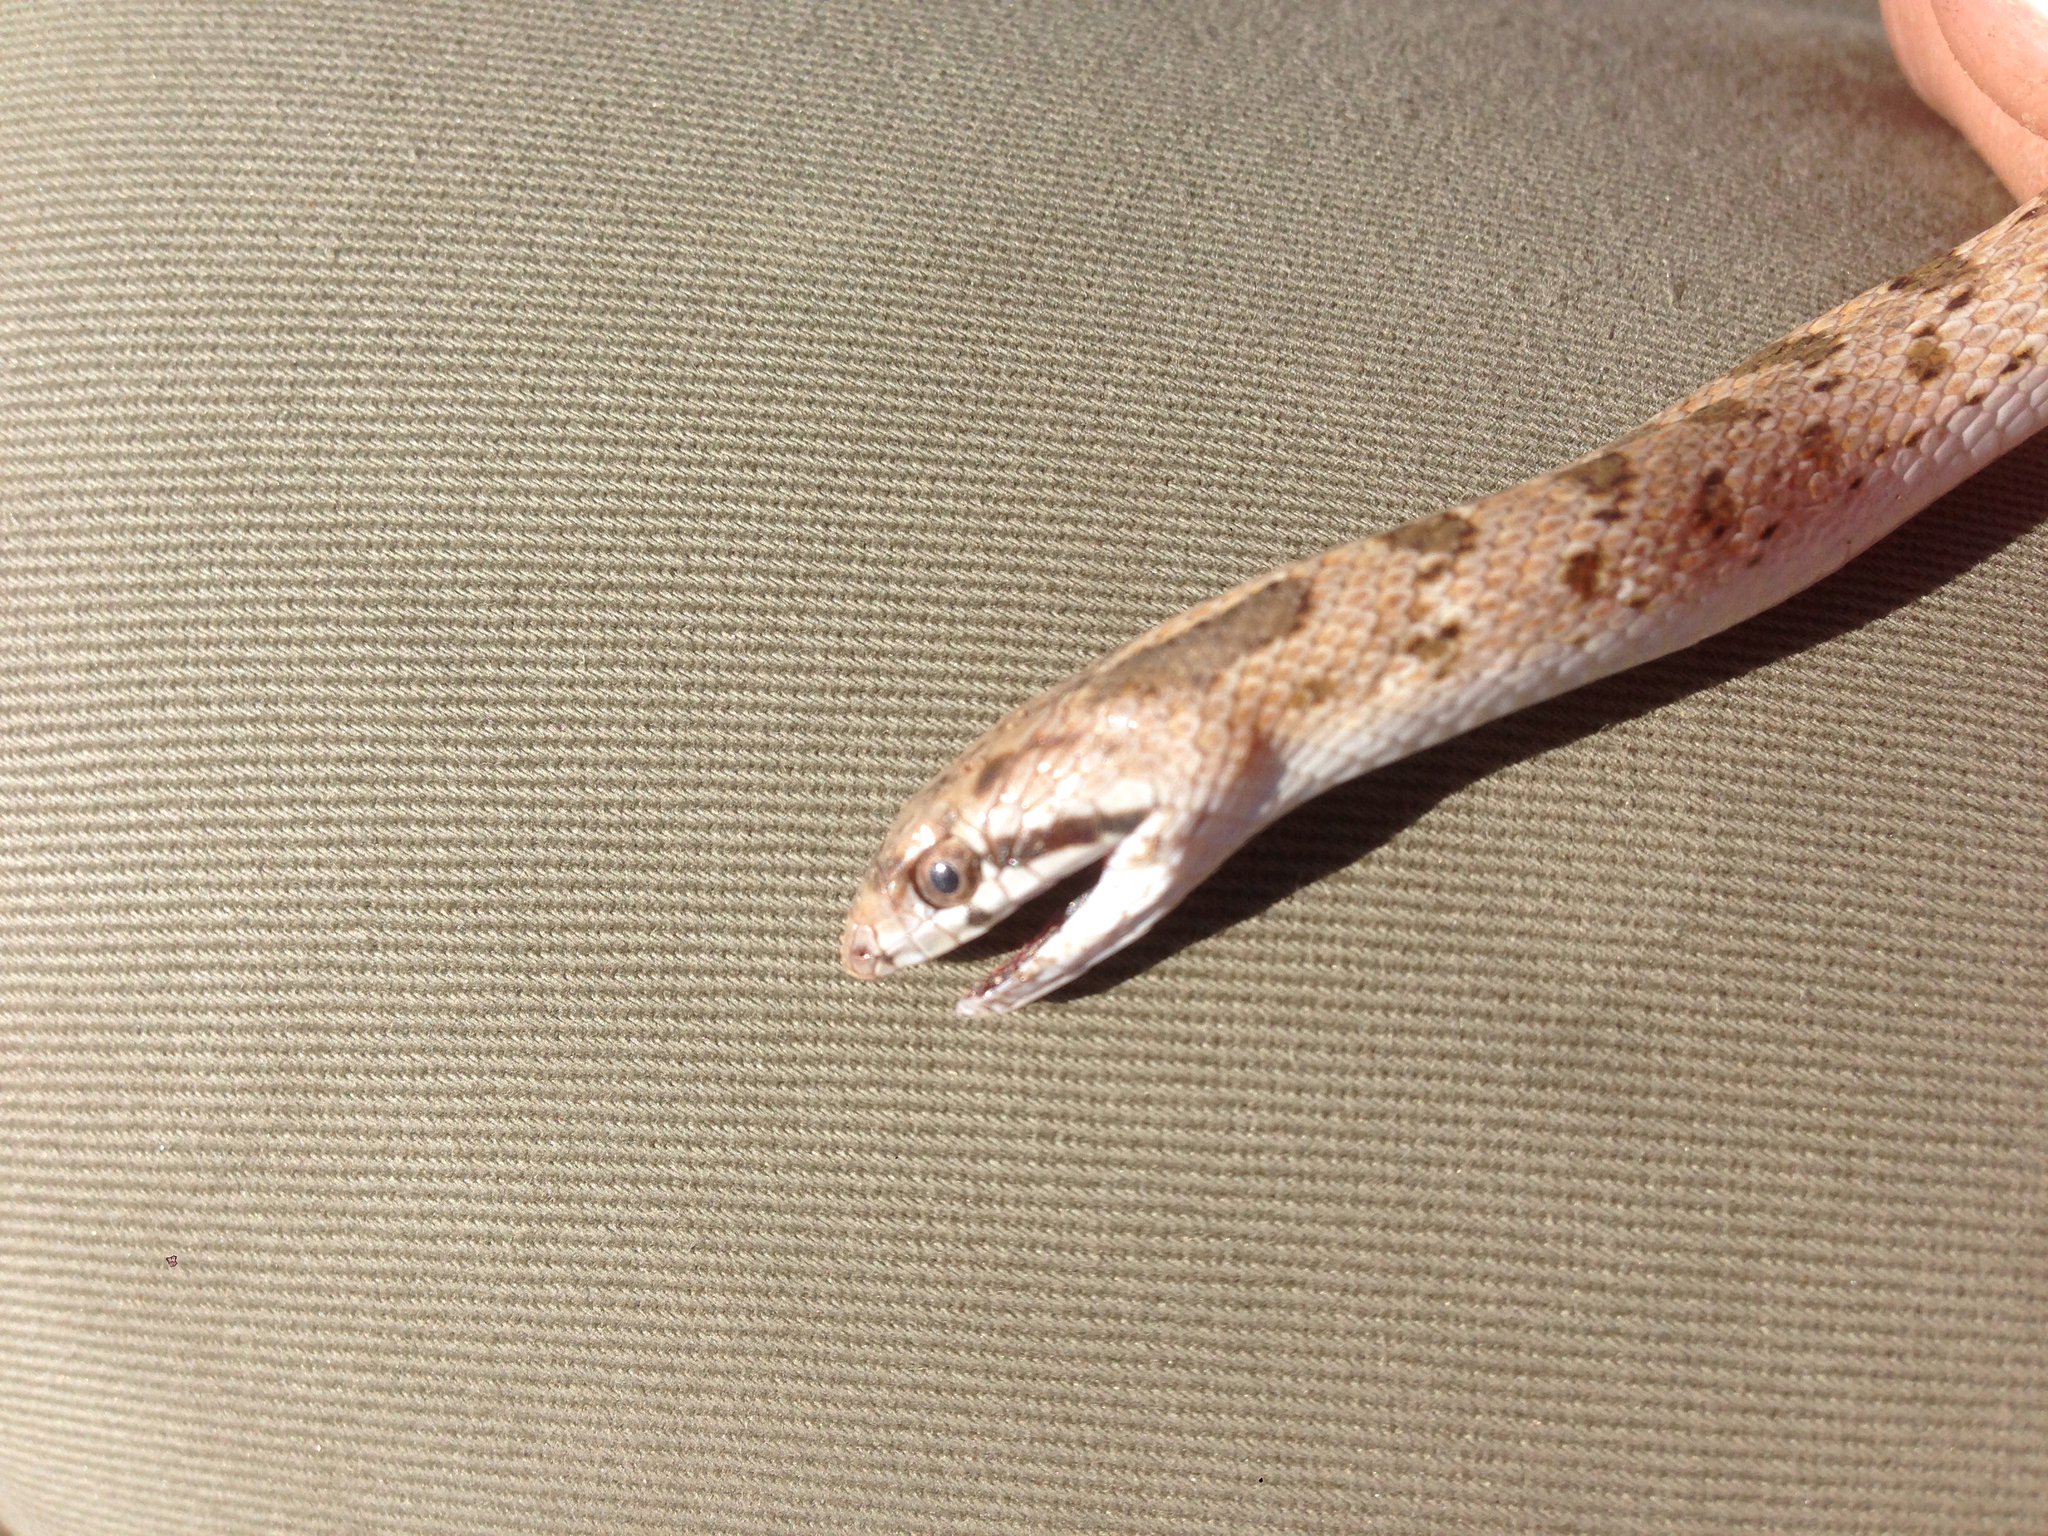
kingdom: Animalia
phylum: Chordata
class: Squamata
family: Colubridae
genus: Arizona
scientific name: Arizona elegans
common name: Glossy snake
